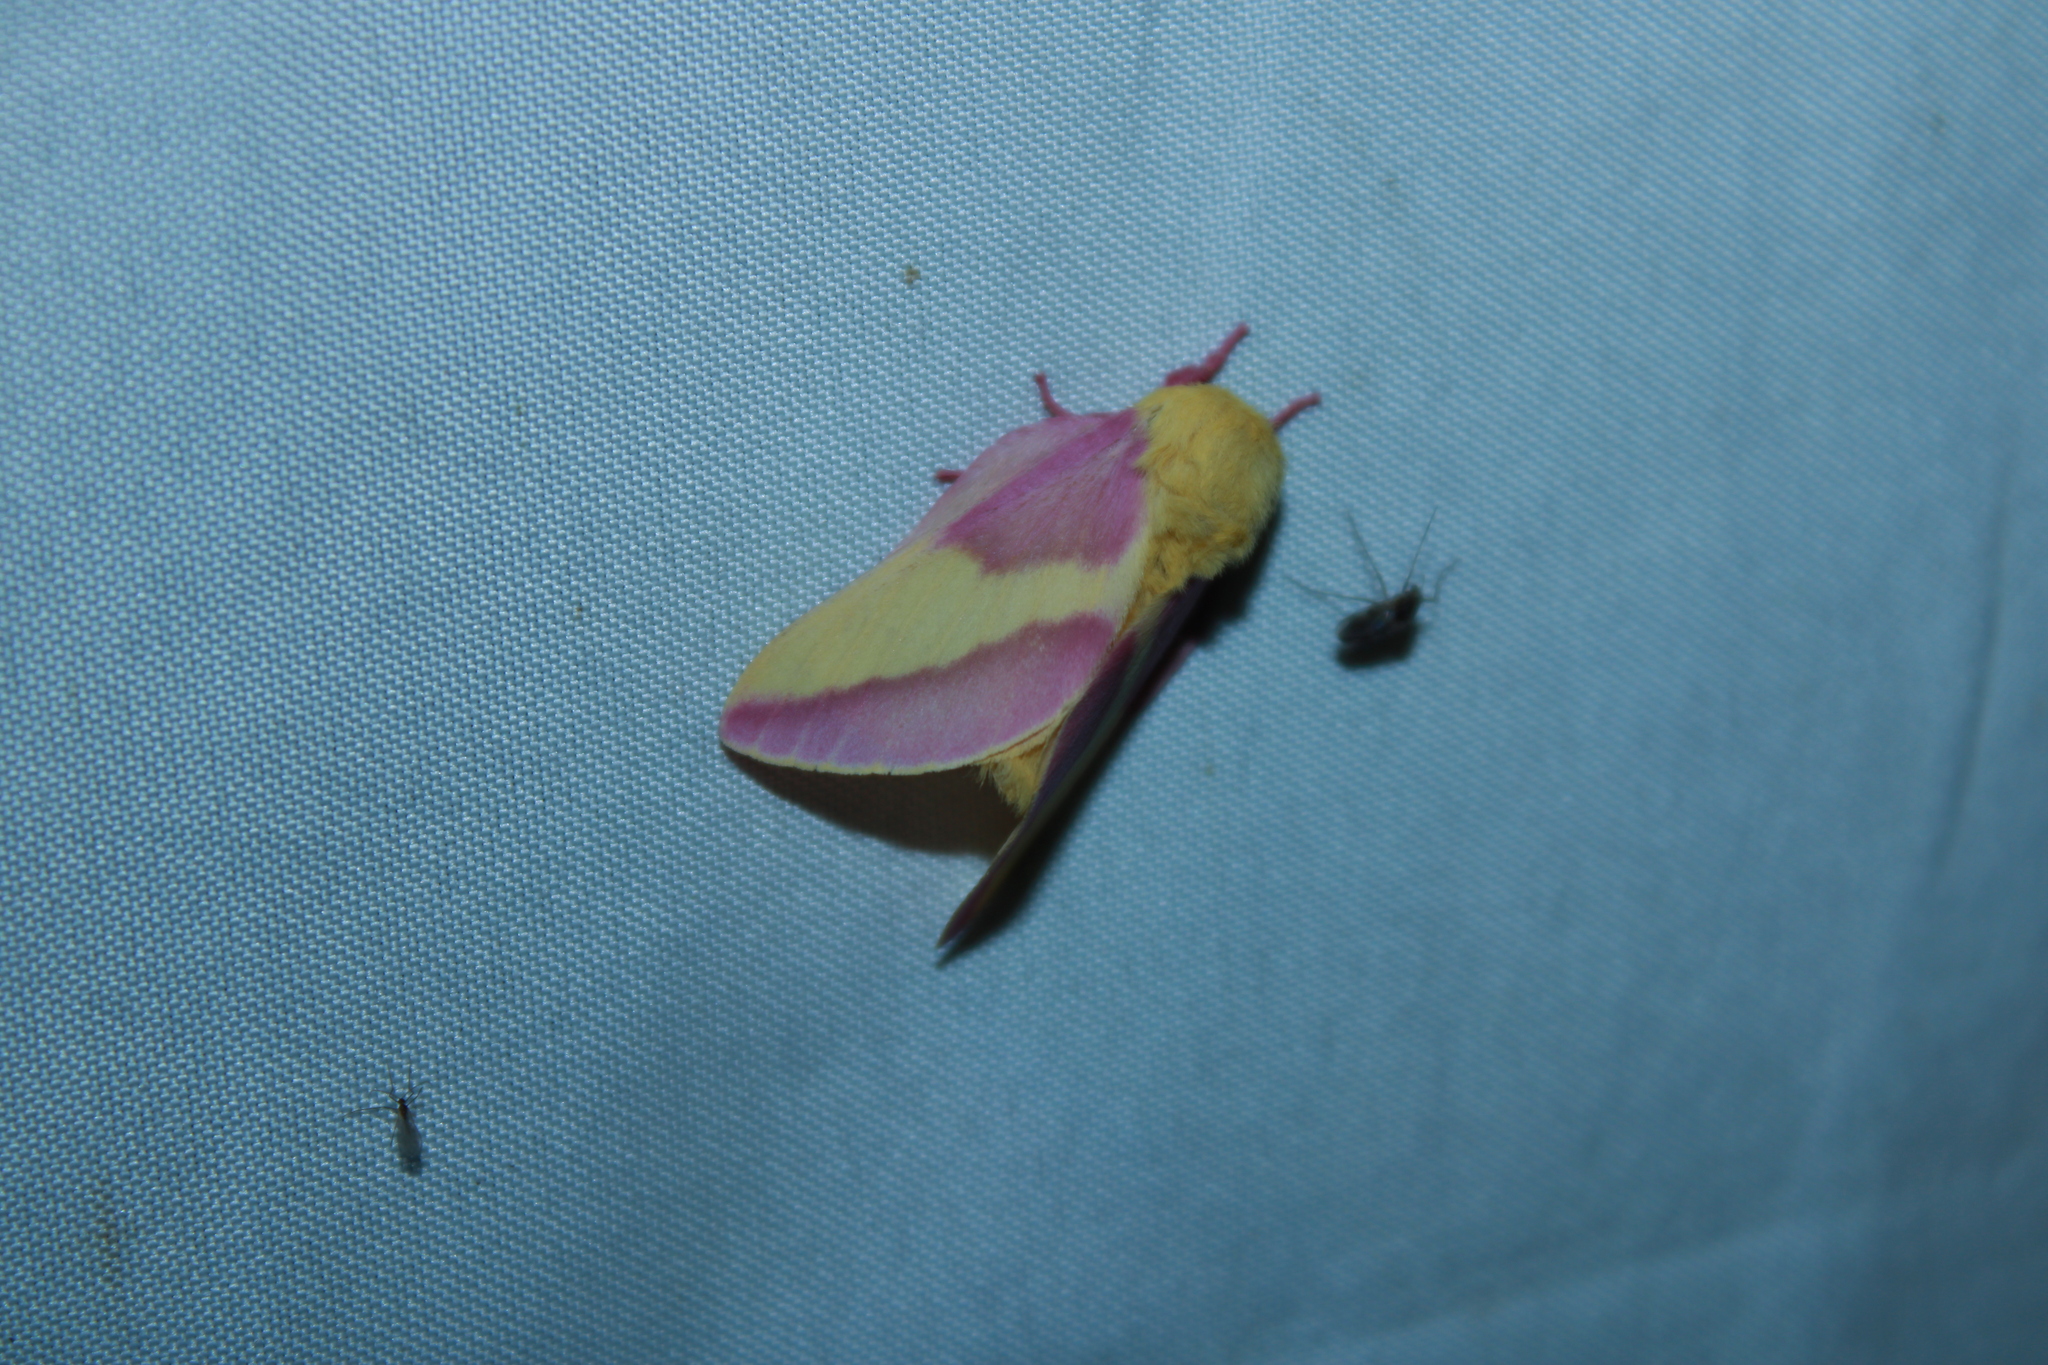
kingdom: Animalia
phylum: Arthropoda
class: Insecta
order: Lepidoptera
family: Saturniidae
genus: Dryocampa
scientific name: Dryocampa rubicunda
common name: Rosy maple moth
